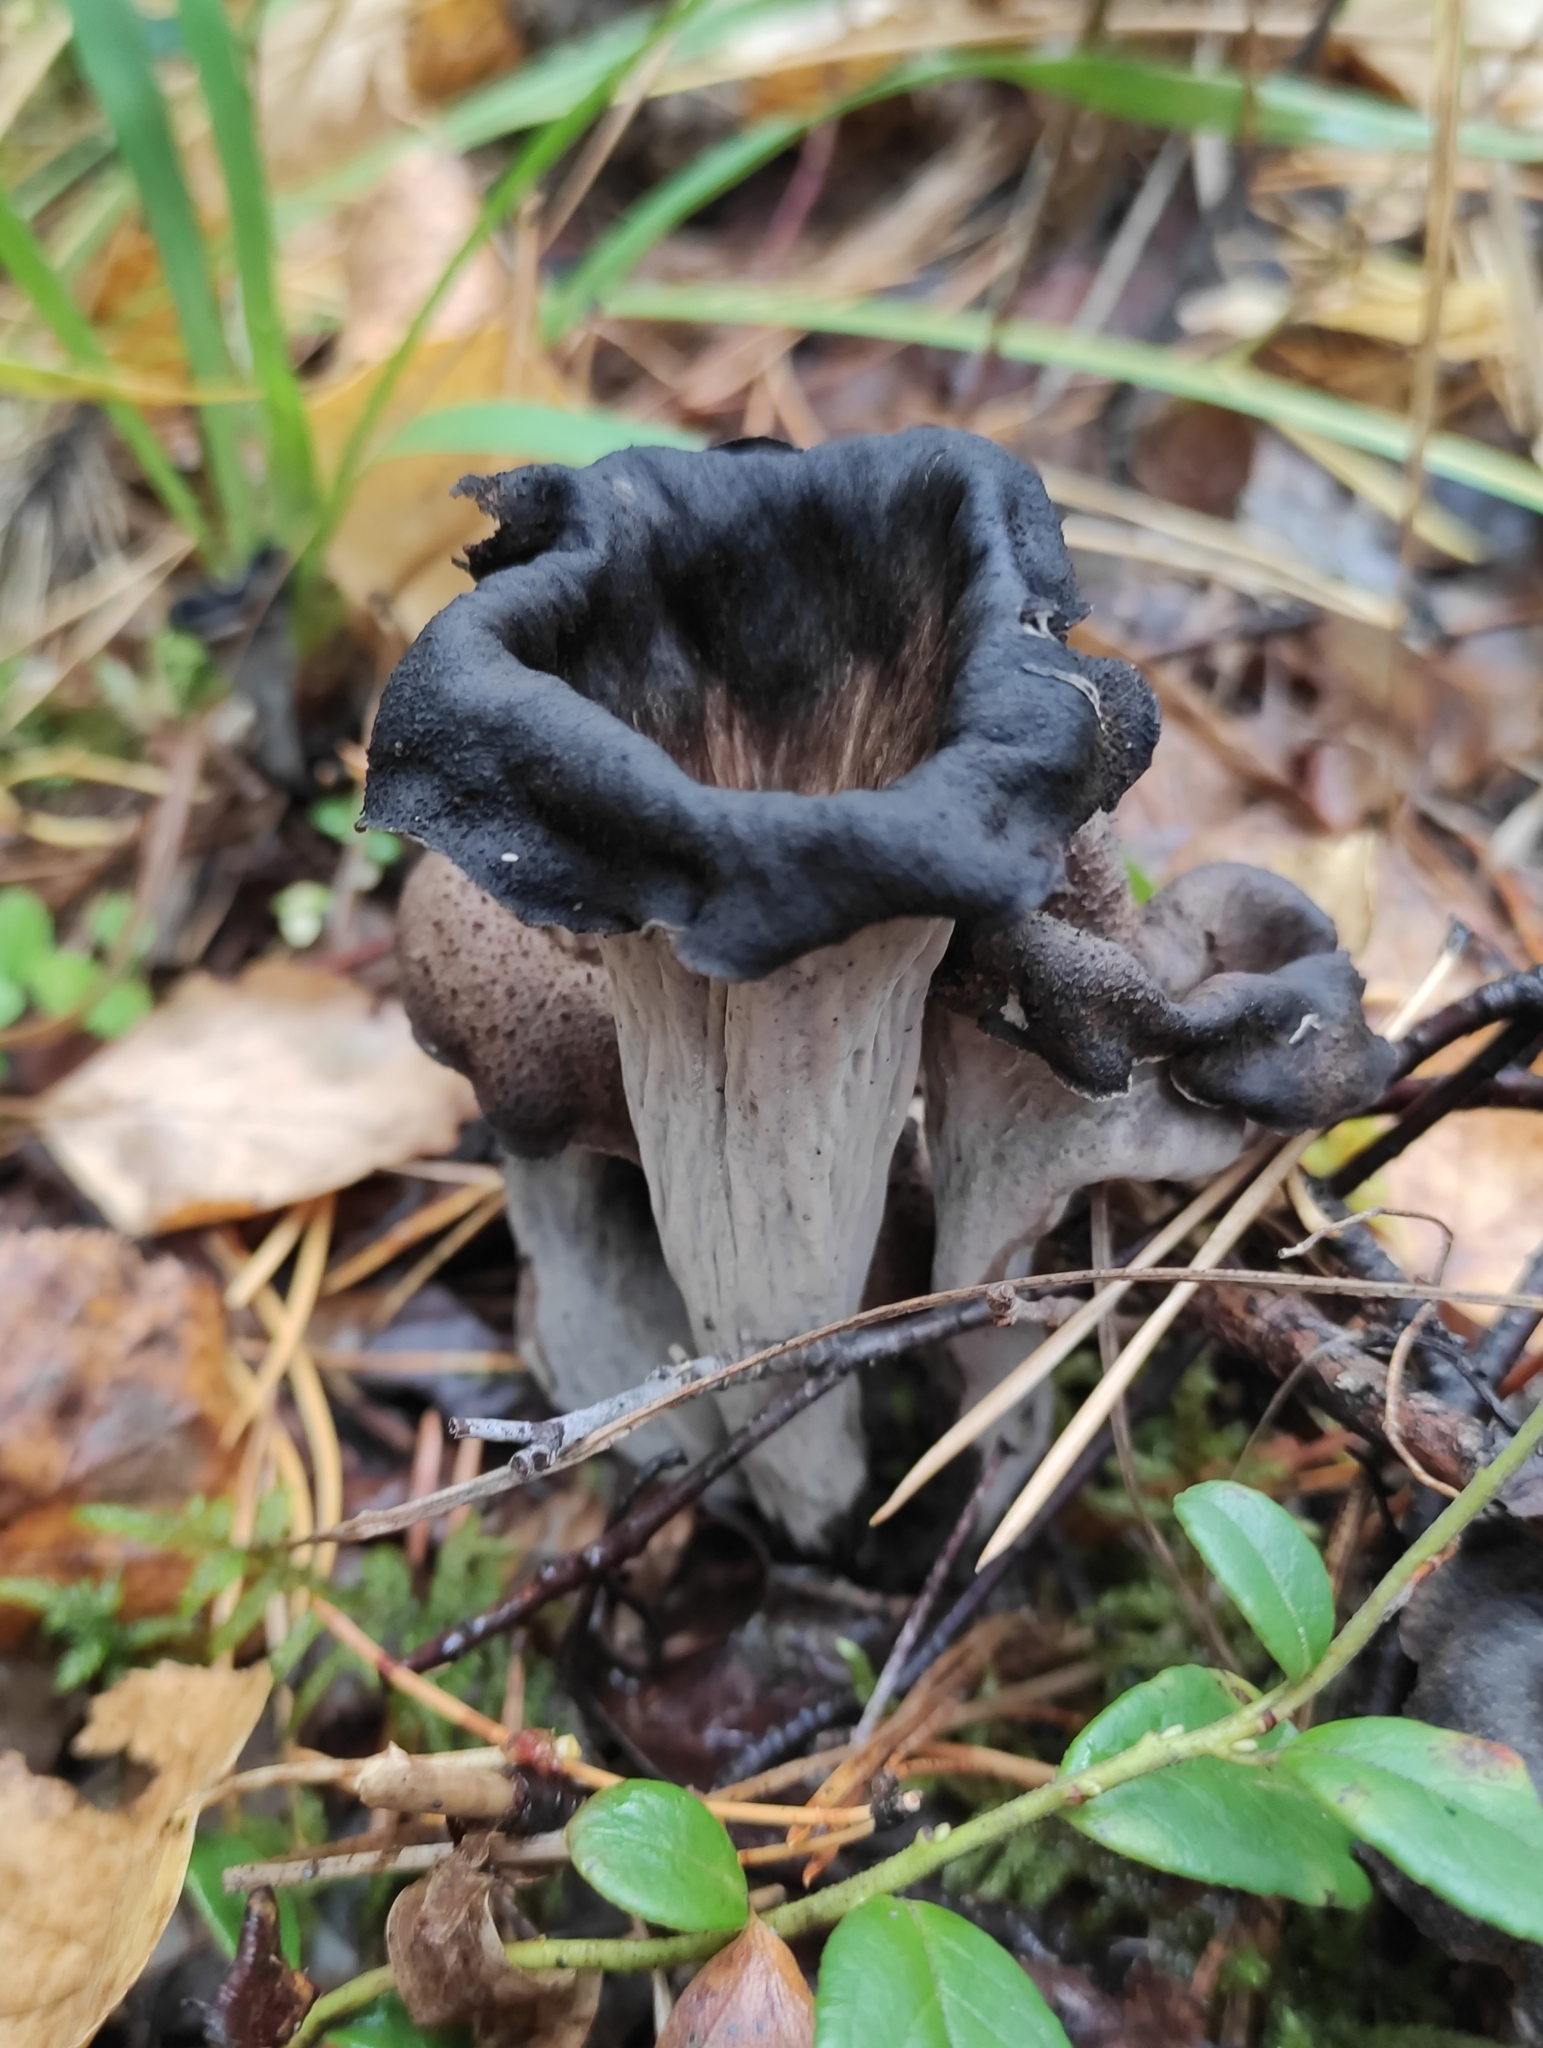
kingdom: Fungi
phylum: Basidiomycota
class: Agaricomycetes
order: Cantharellales
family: Hydnaceae
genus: Craterellus
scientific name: Craterellus cornucopioides
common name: Horn of plenty
